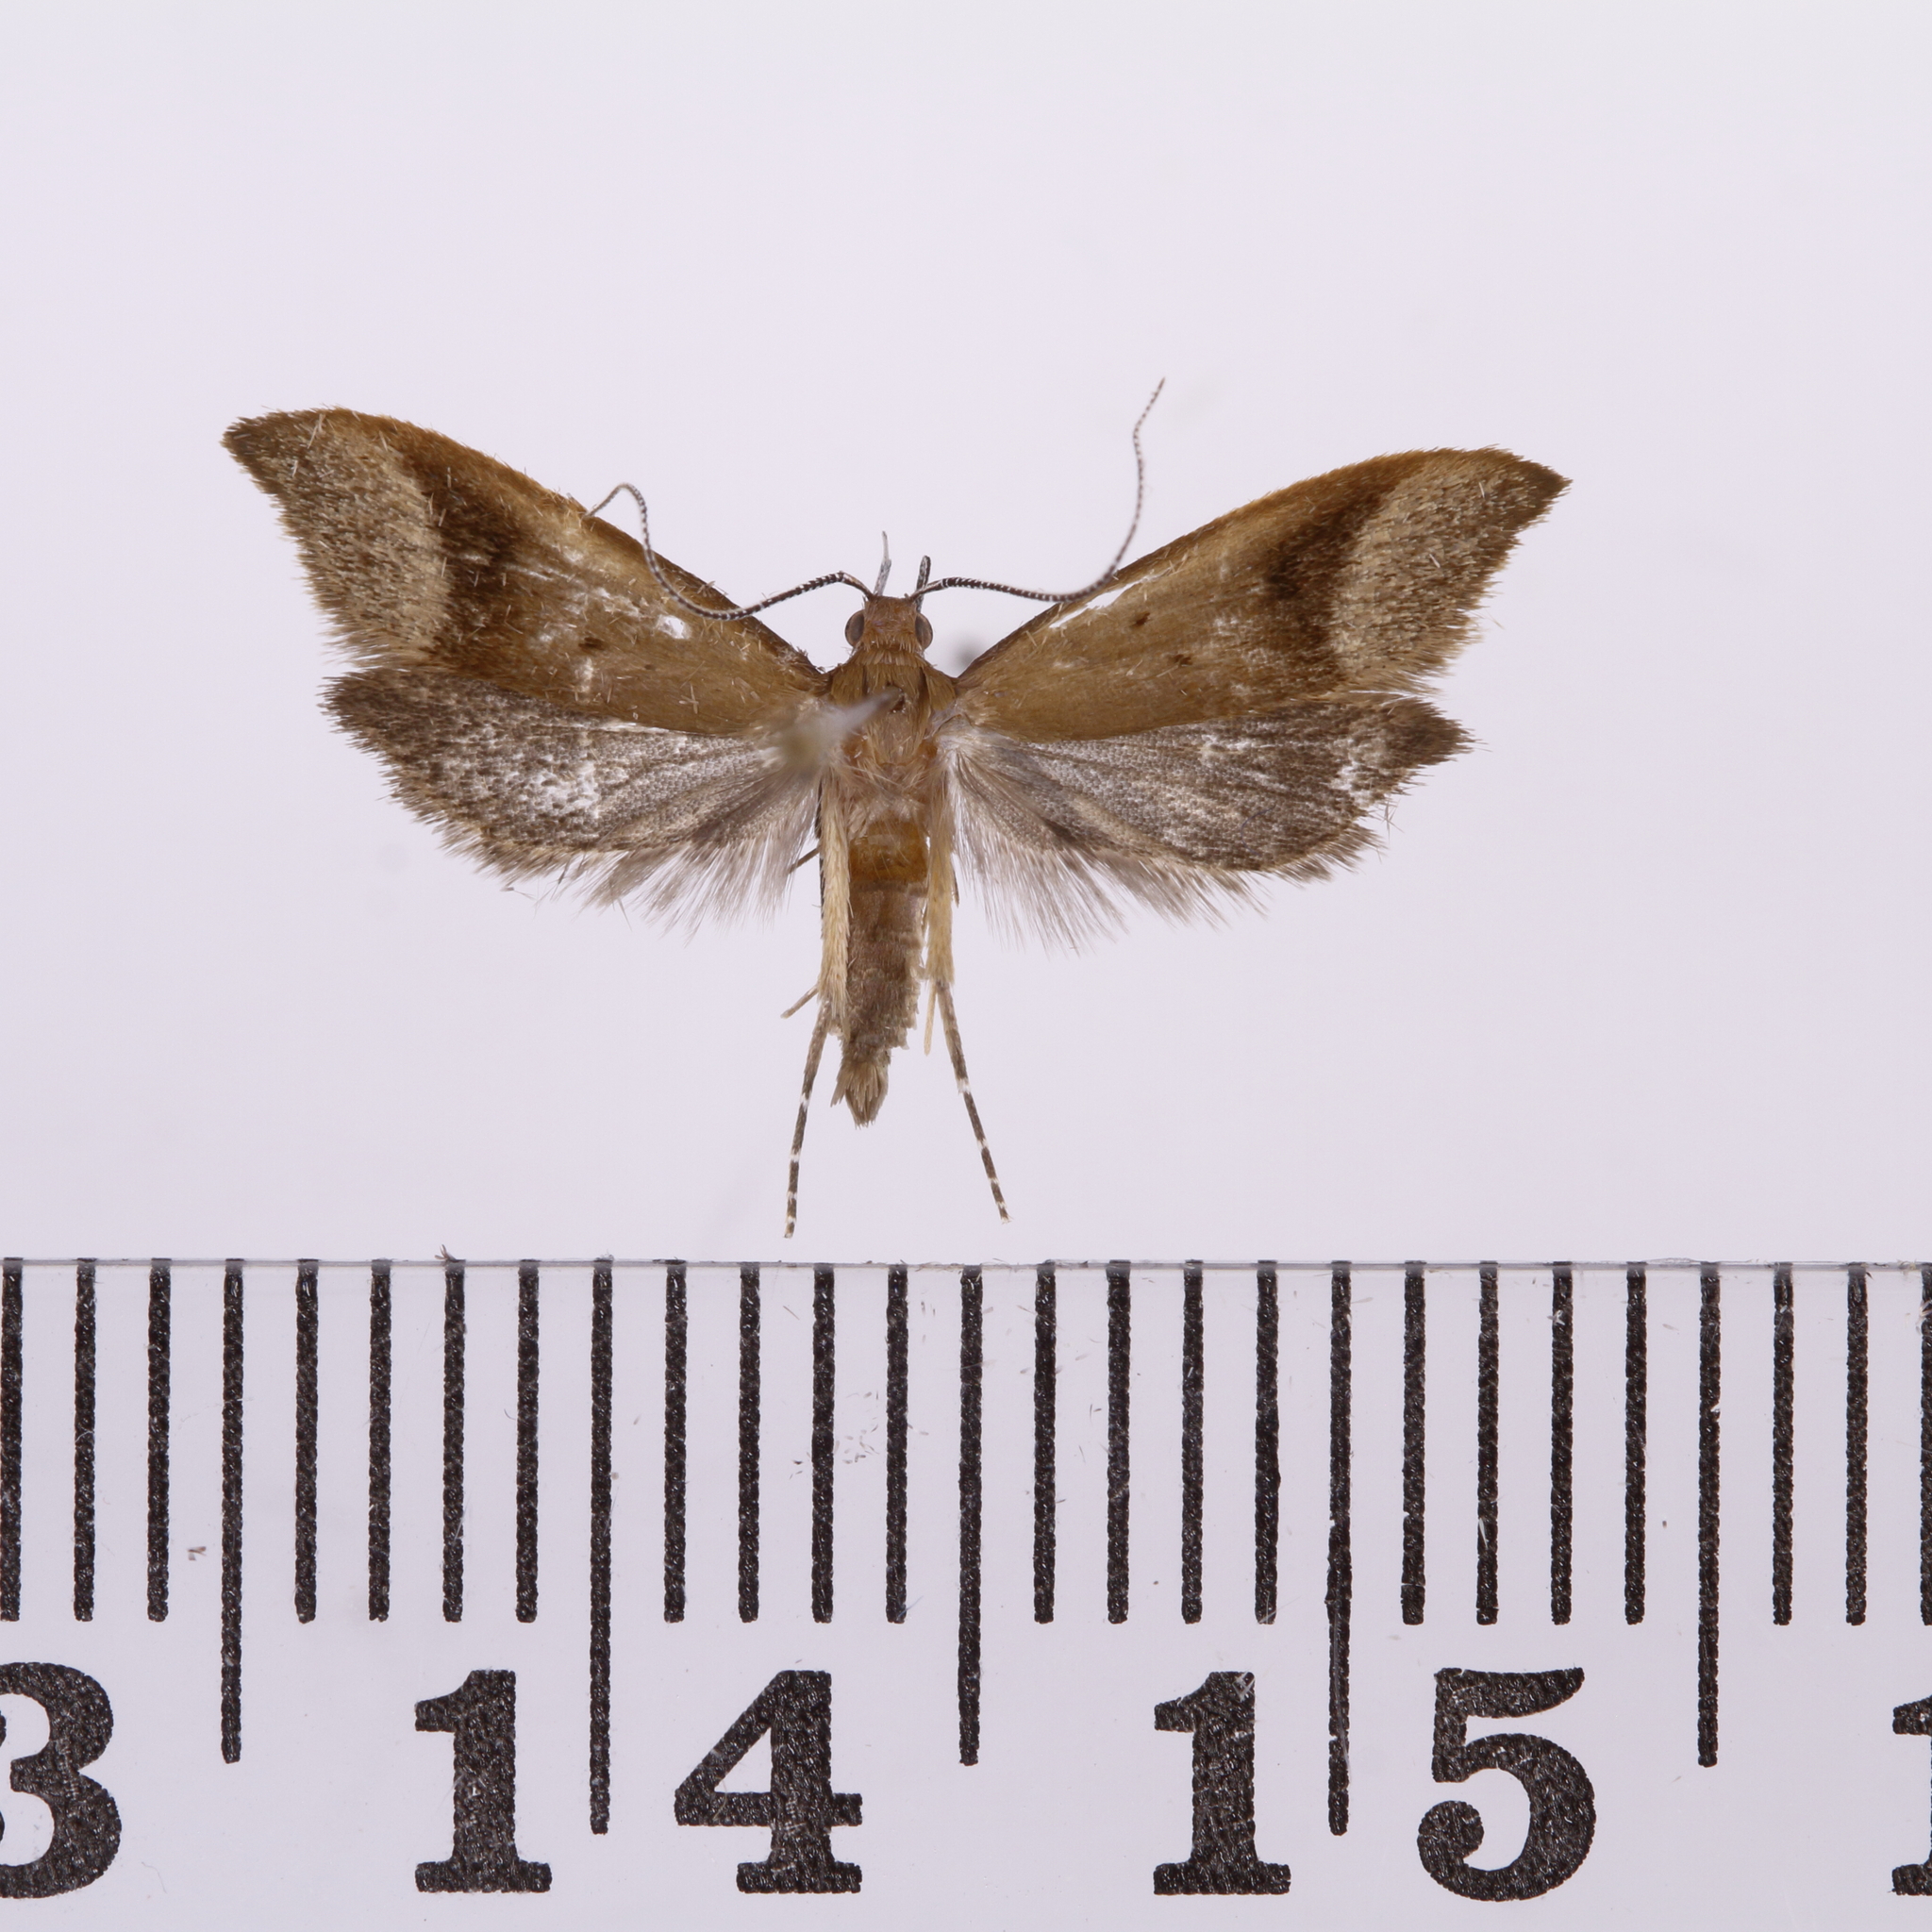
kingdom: Animalia
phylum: Arthropoda
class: Insecta
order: Lepidoptera
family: Oecophoridae
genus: Gymnobathra
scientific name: Gymnobathra hyetodes
